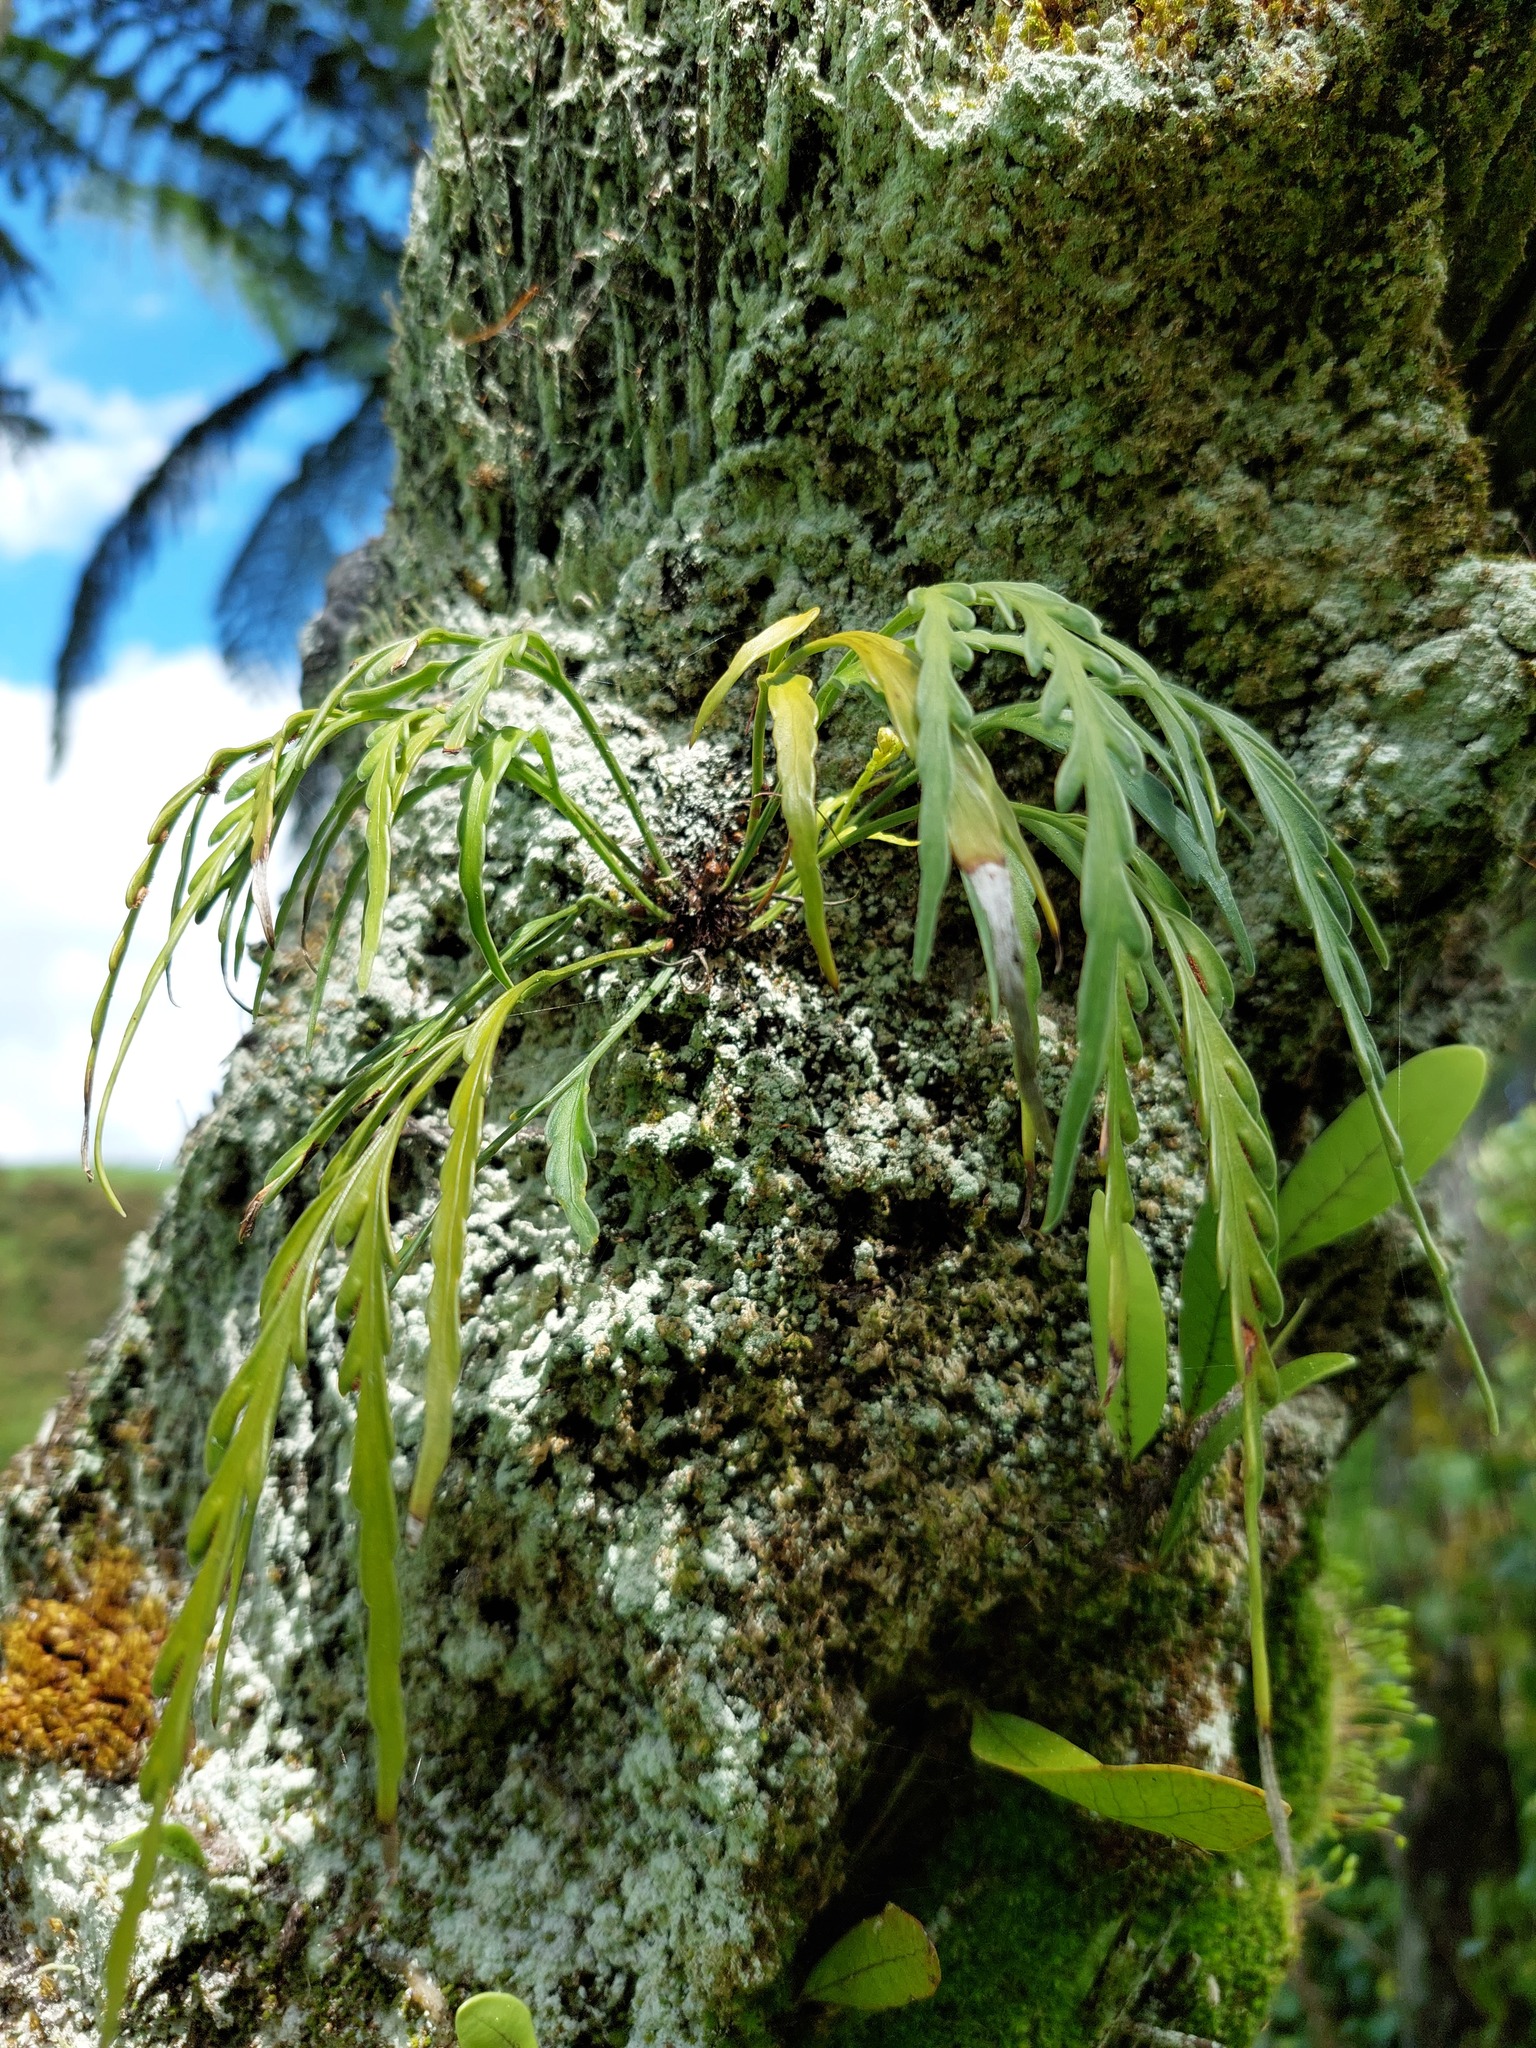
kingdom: Plantae
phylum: Tracheophyta
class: Polypodiopsida
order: Polypodiales
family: Aspleniaceae
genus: Asplenium
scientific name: Asplenium flaccidum
